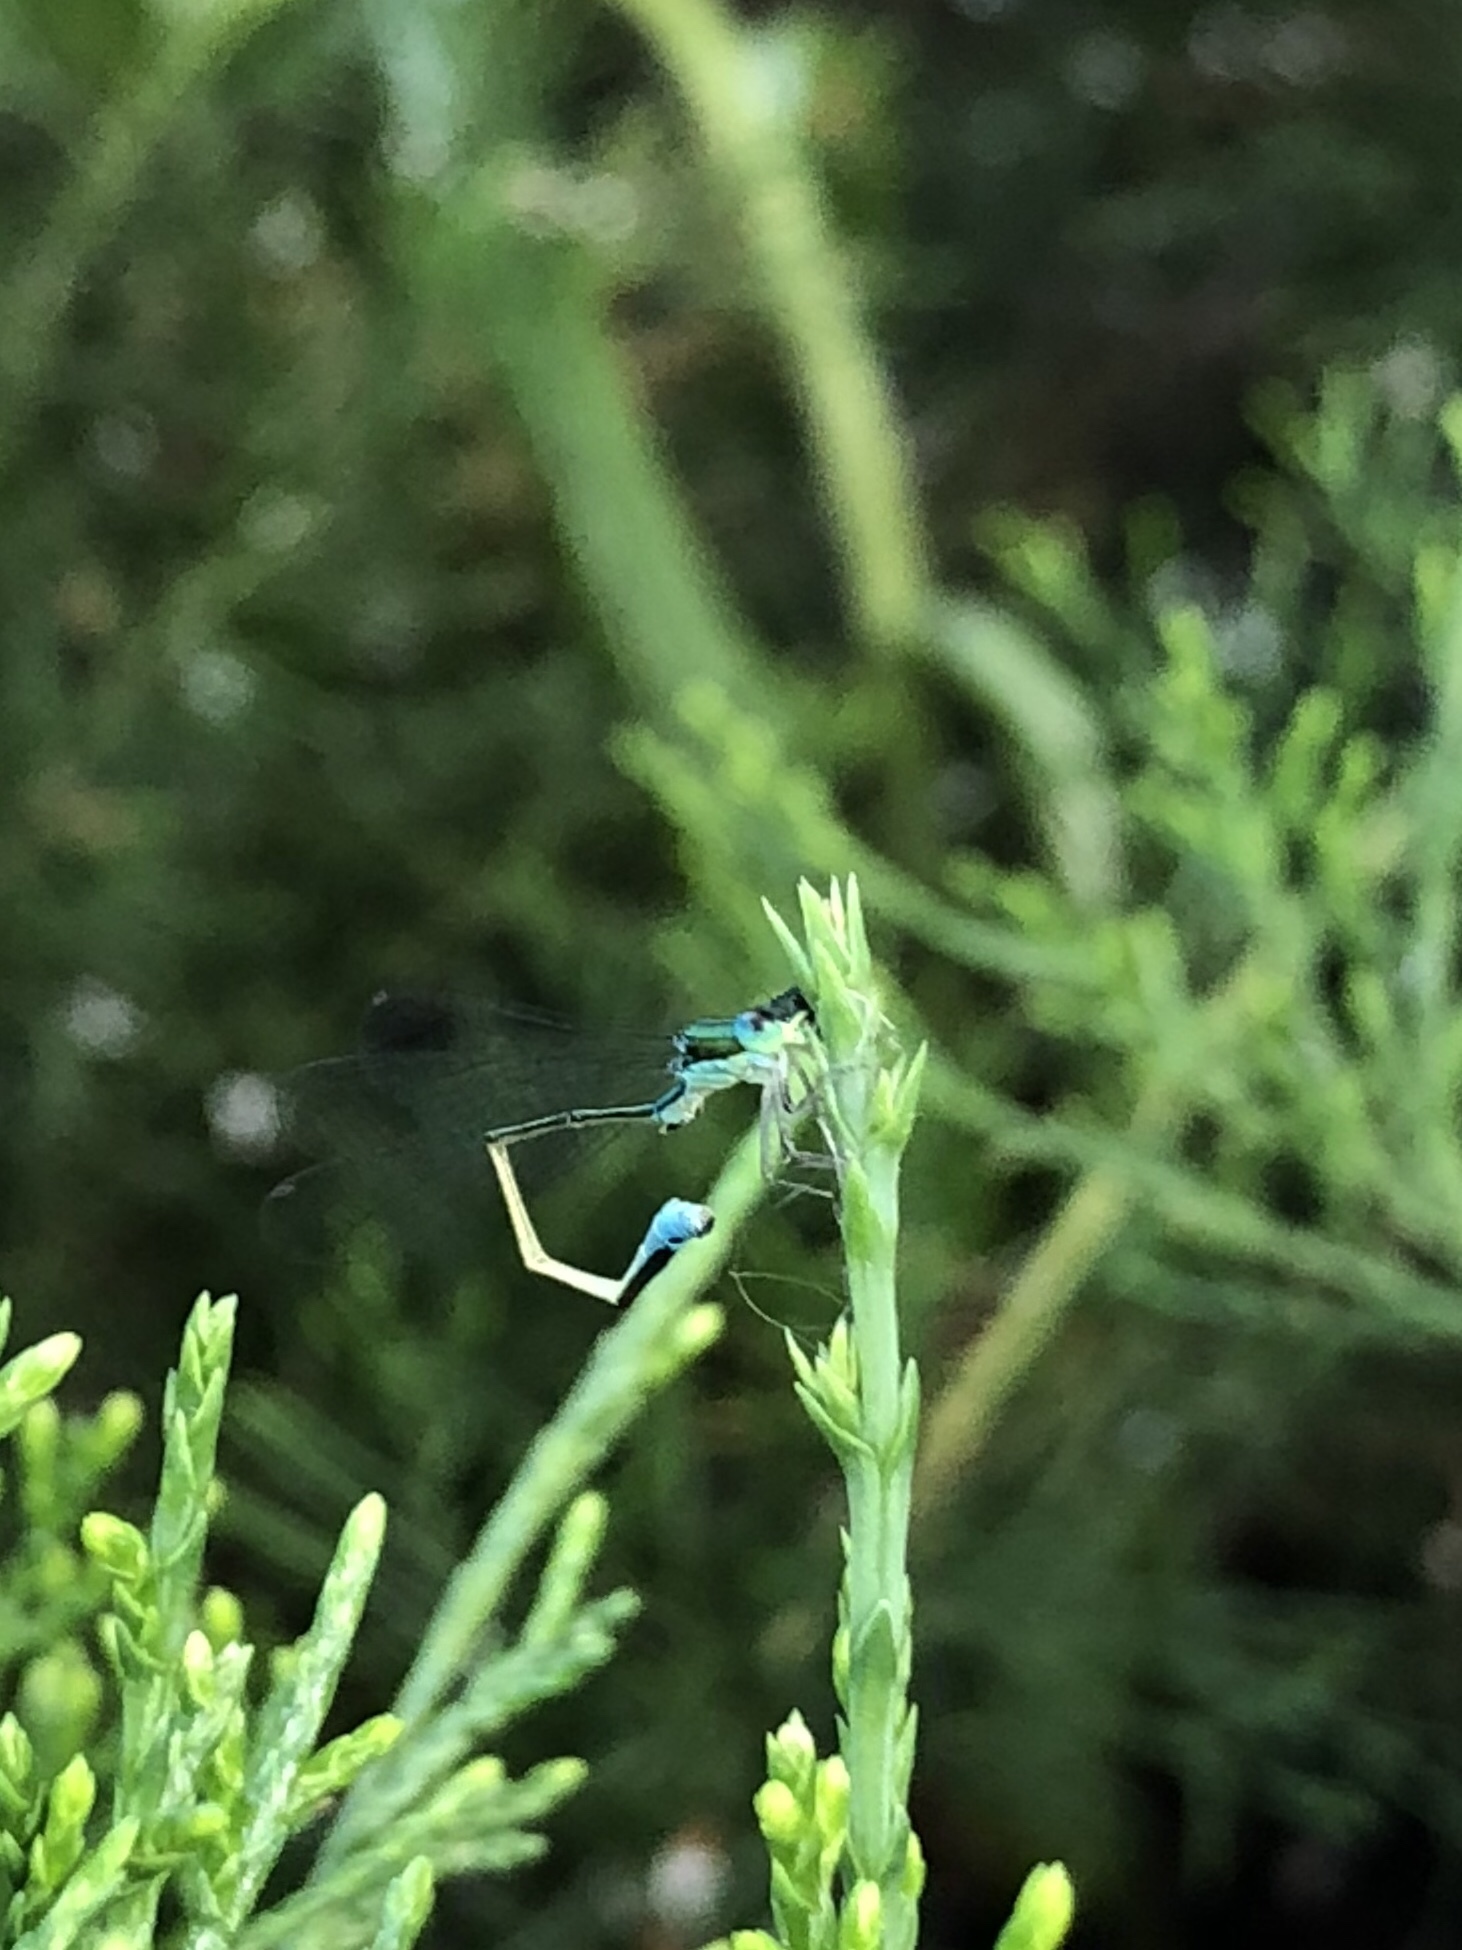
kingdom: Animalia
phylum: Arthropoda
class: Insecta
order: Odonata
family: Coenagrionidae
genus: Nehalennia
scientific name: Nehalennia irene
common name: Sedge sprite
